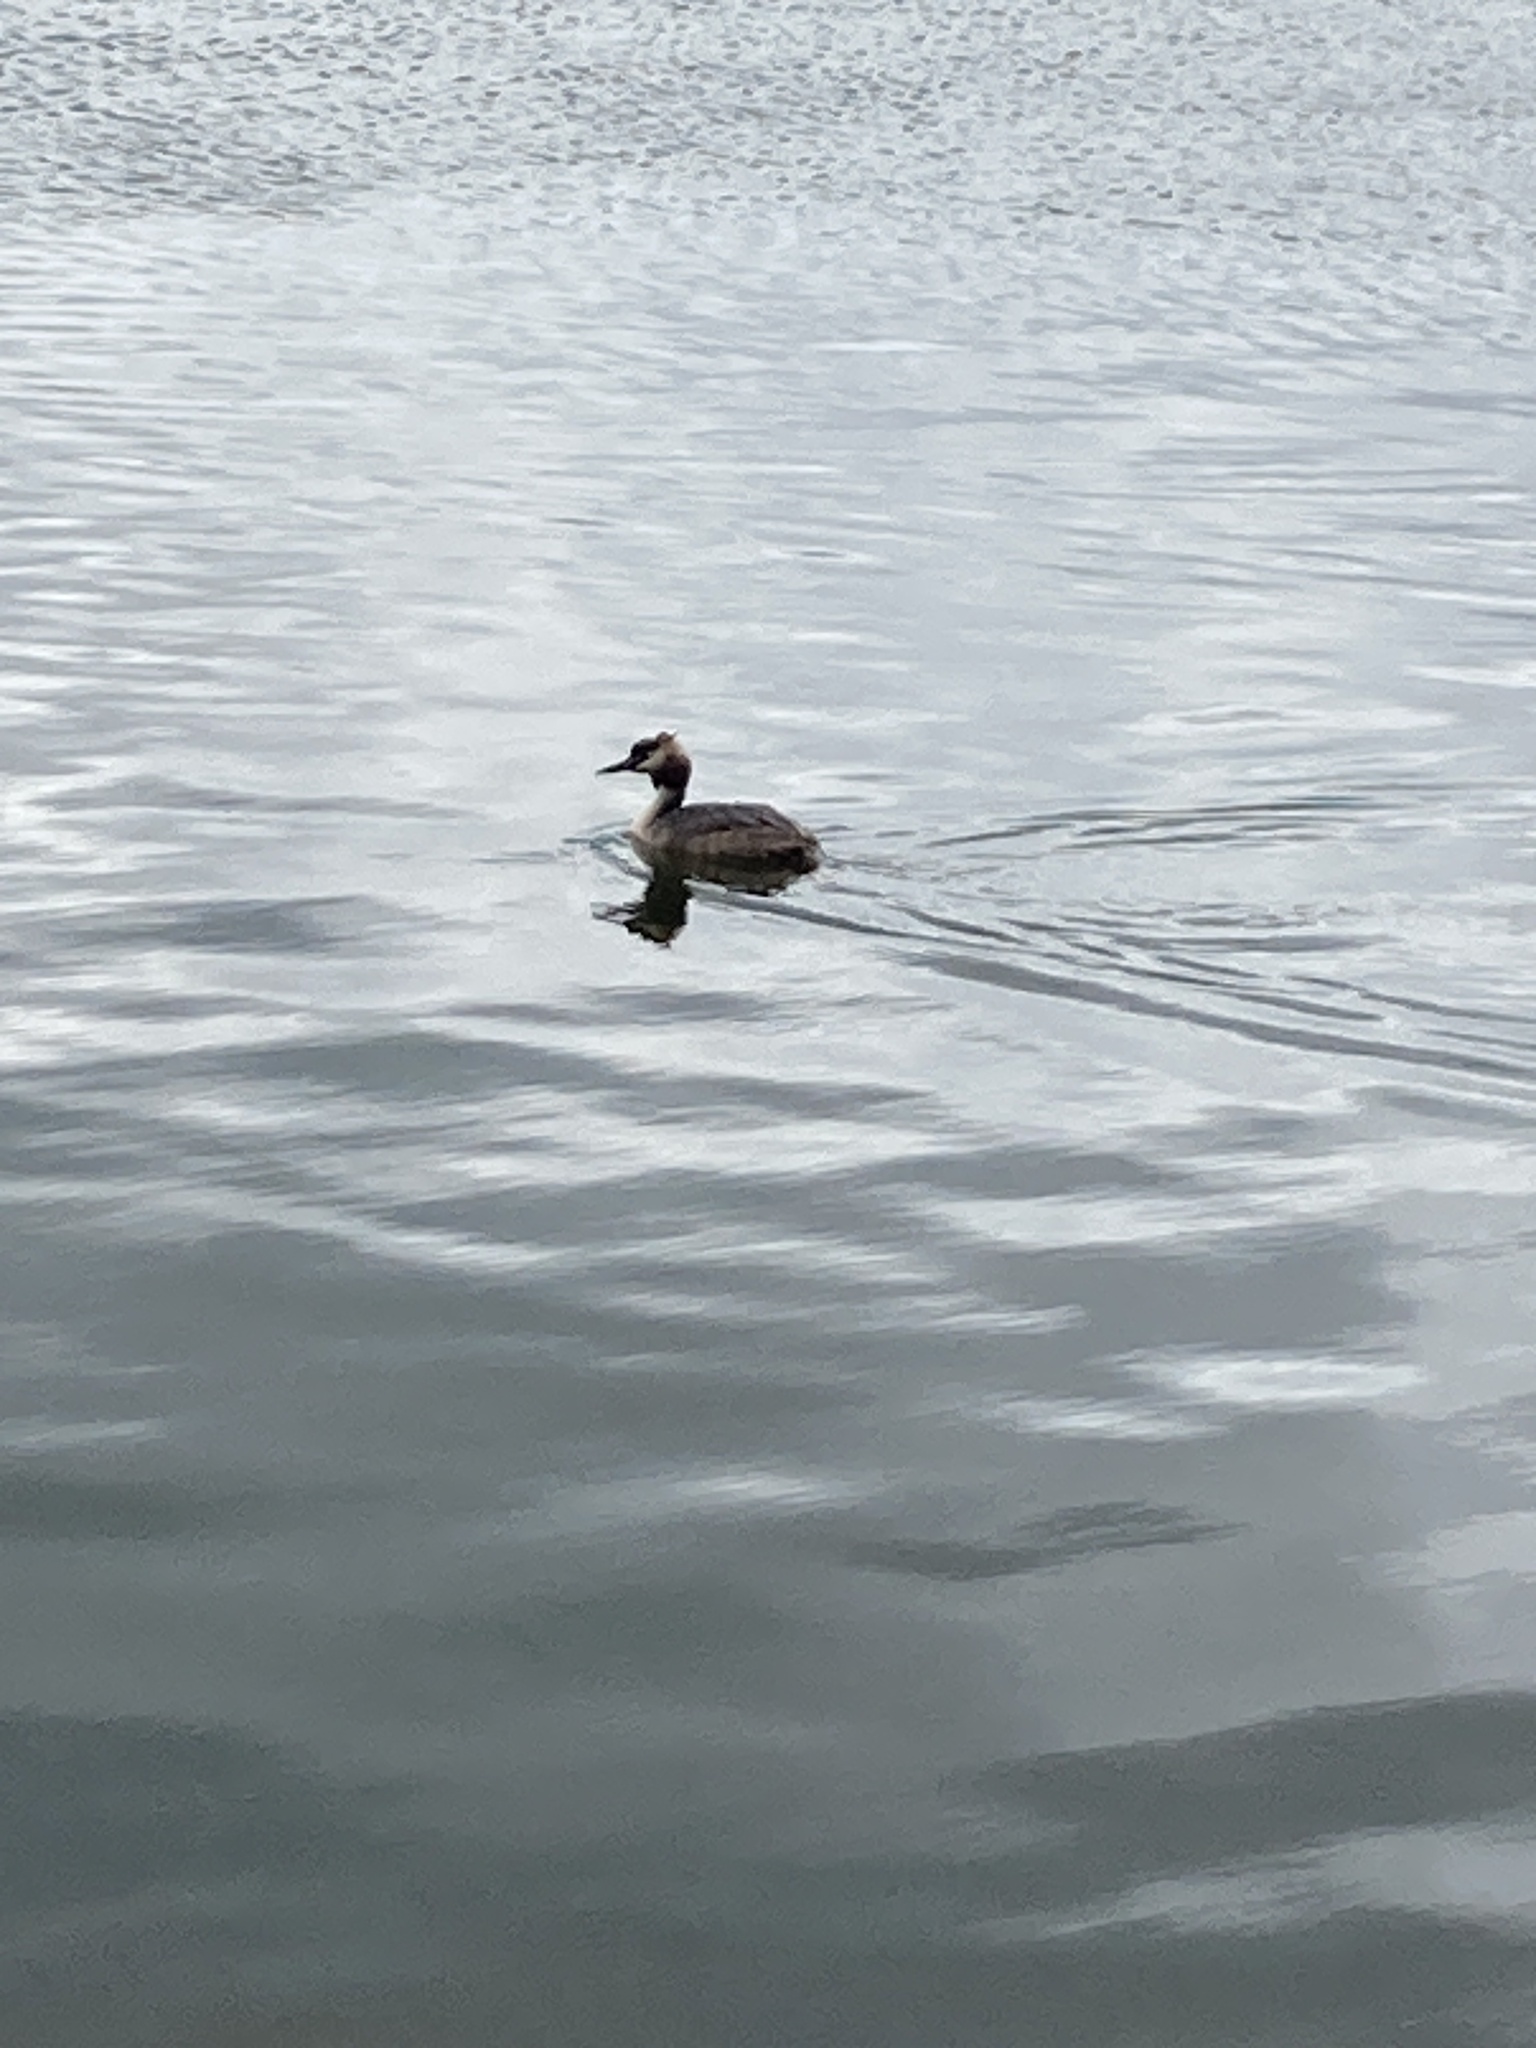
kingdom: Animalia
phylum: Chordata
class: Aves
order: Podicipediformes
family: Podicipedidae
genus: Podiceps
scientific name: Podiceps cristatus
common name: Great crested grebe
